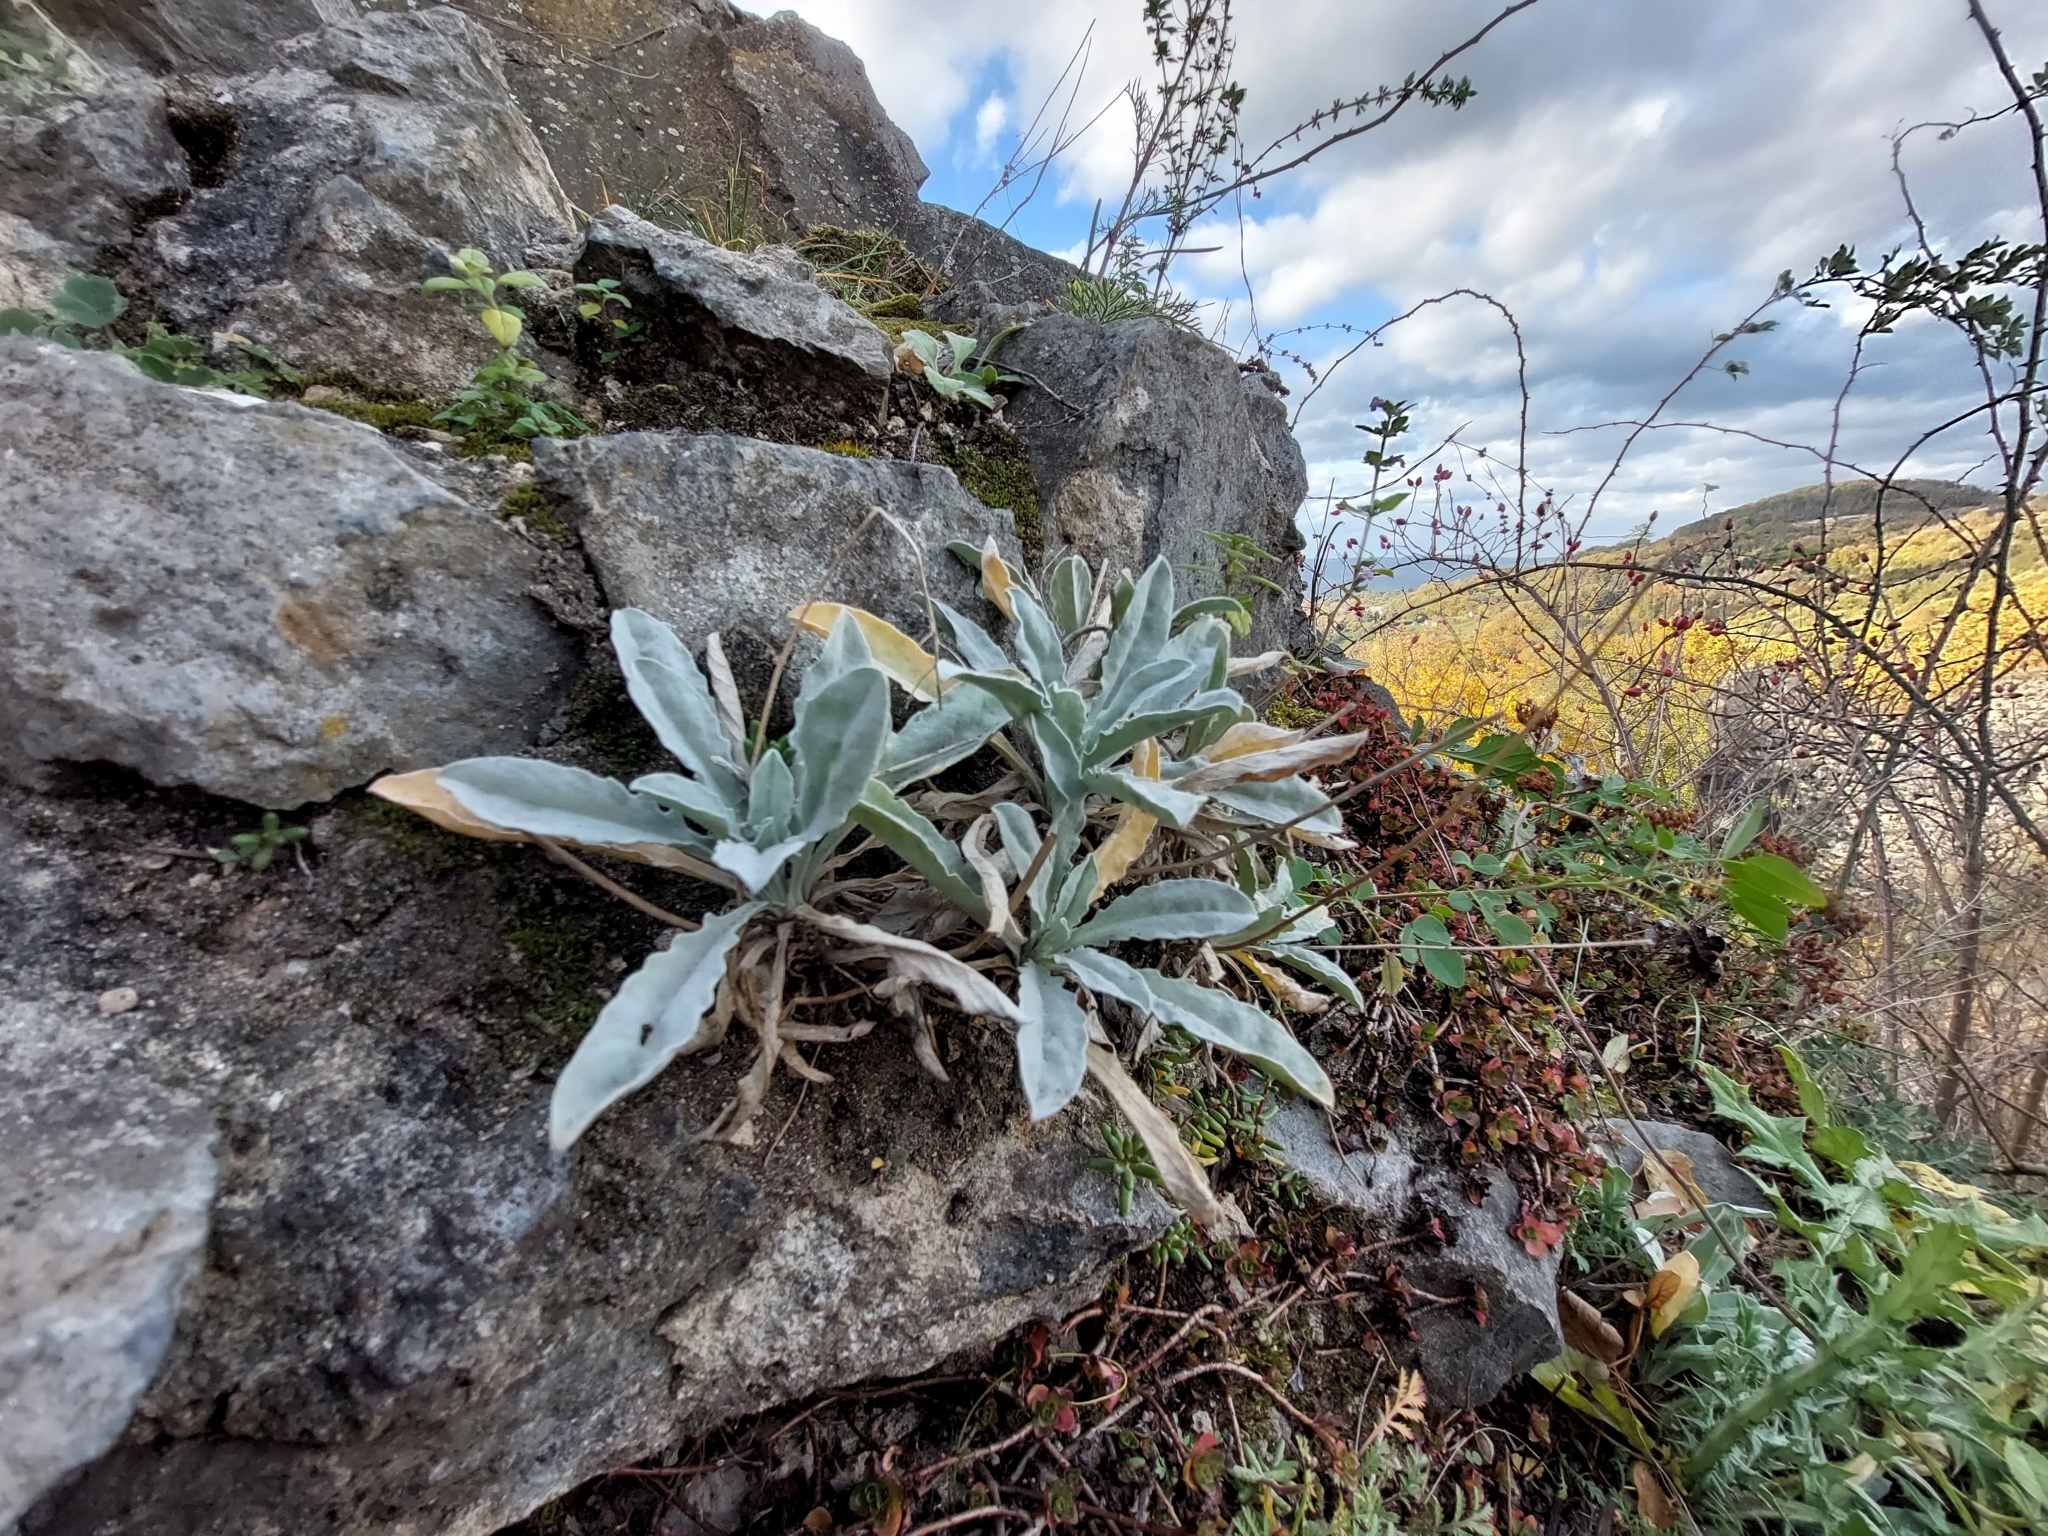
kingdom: Plantae
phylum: Tracheophyta
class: Magnoliopsida
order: Brassicales
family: Brassicaceae
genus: Aurinia
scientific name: Aurinia saxatilis
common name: Golden-tuft alyssum
